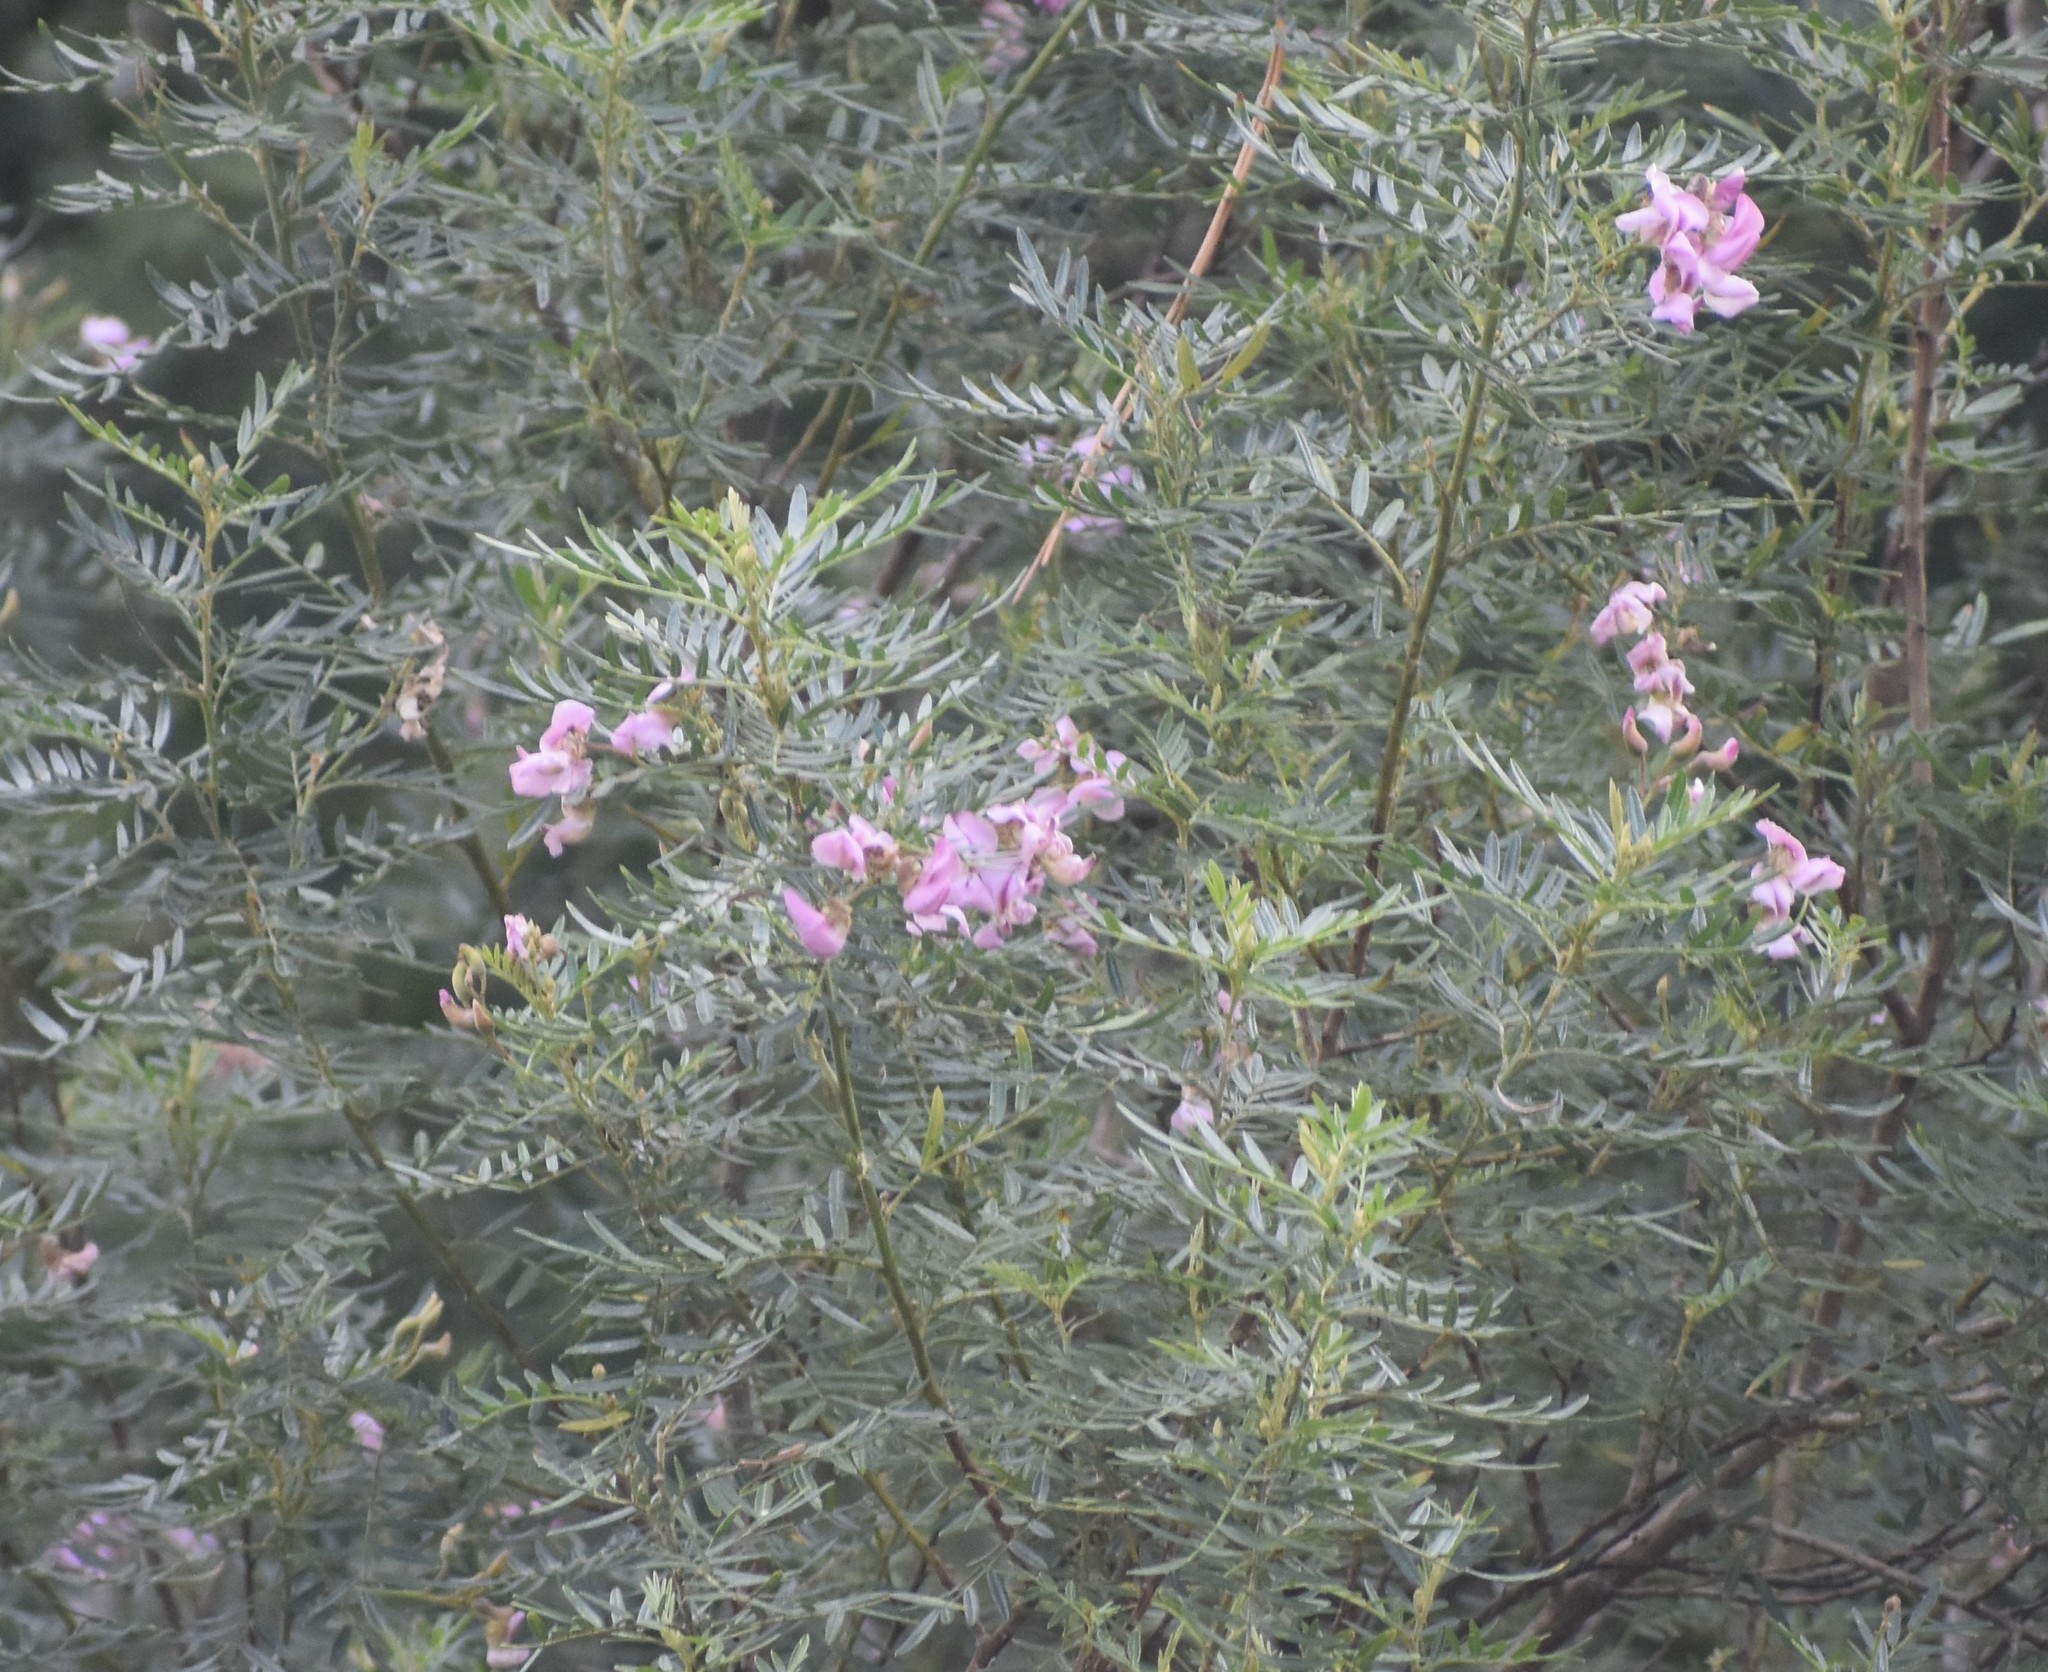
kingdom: Plantae
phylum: Tracheophyta
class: Magnoliopsida
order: Fabales
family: Fabaceae
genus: Virgilia
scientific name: Virgilia divaricata
